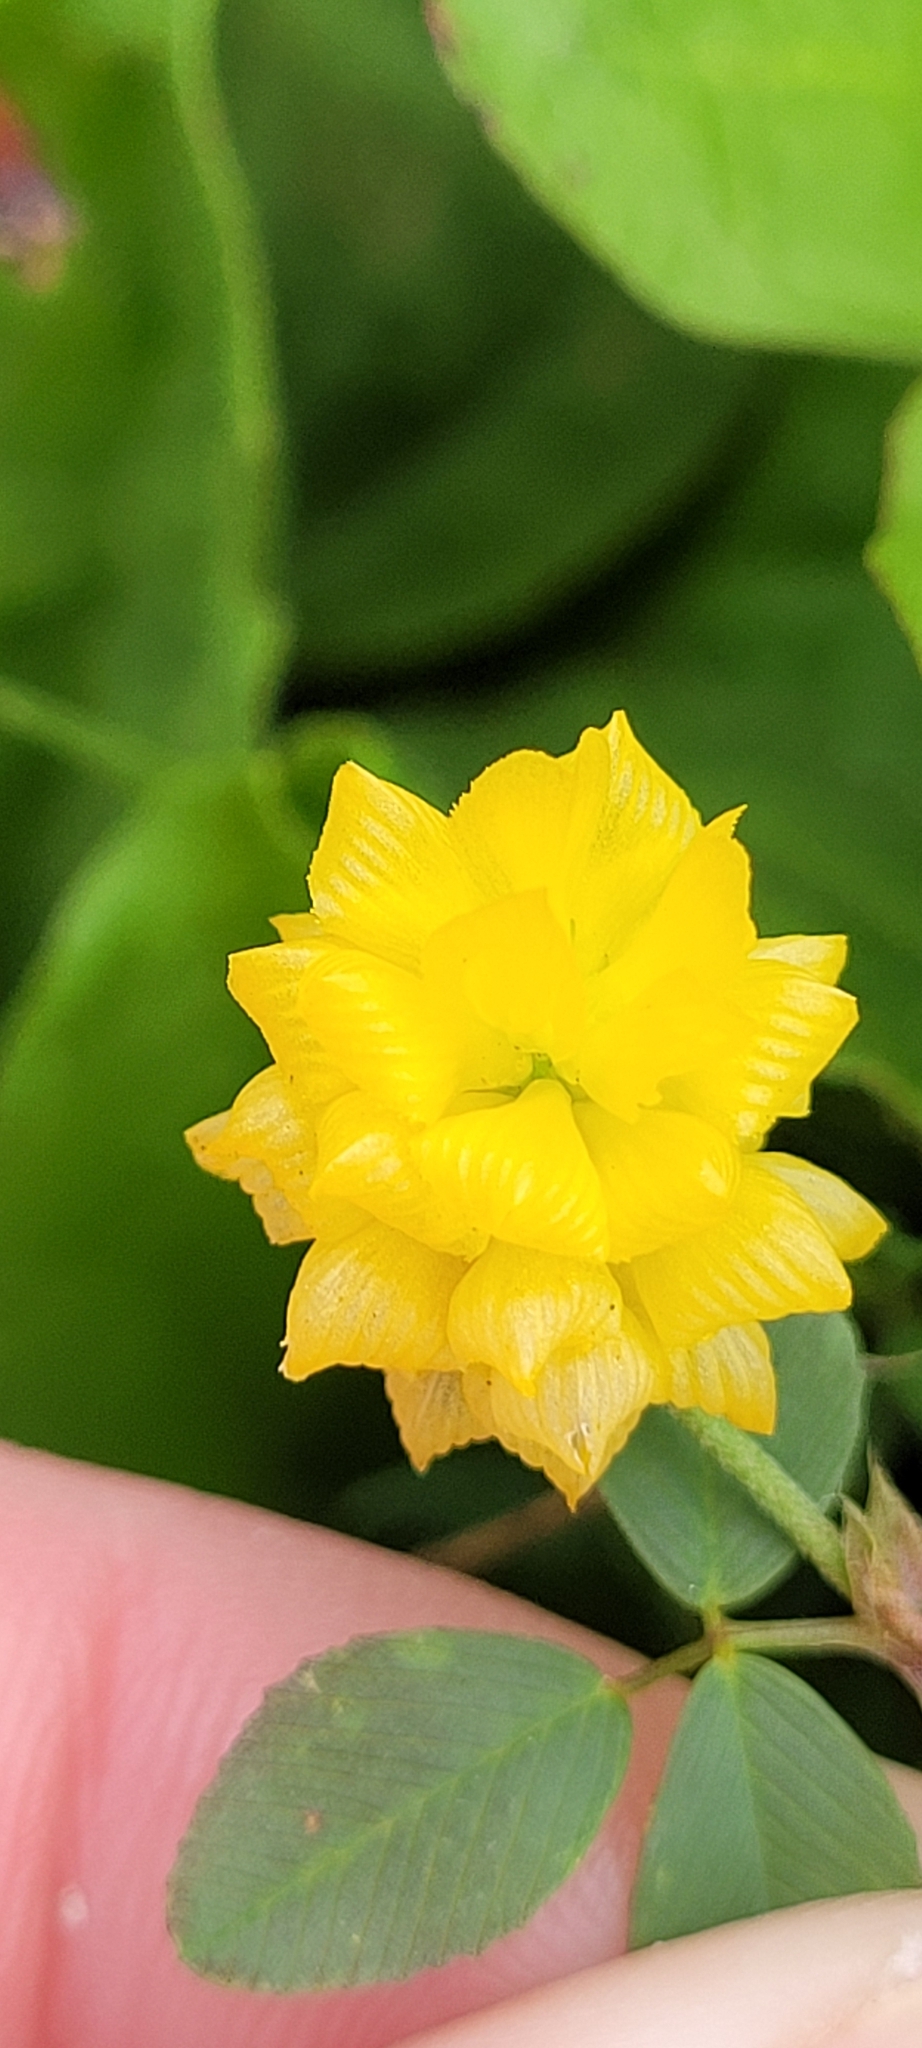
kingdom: Plantae
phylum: Tracheophyta
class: Magnoliopsida
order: Fabales
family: Fabaceae
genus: Trifolium
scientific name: Trifolium campestre
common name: Field clover
